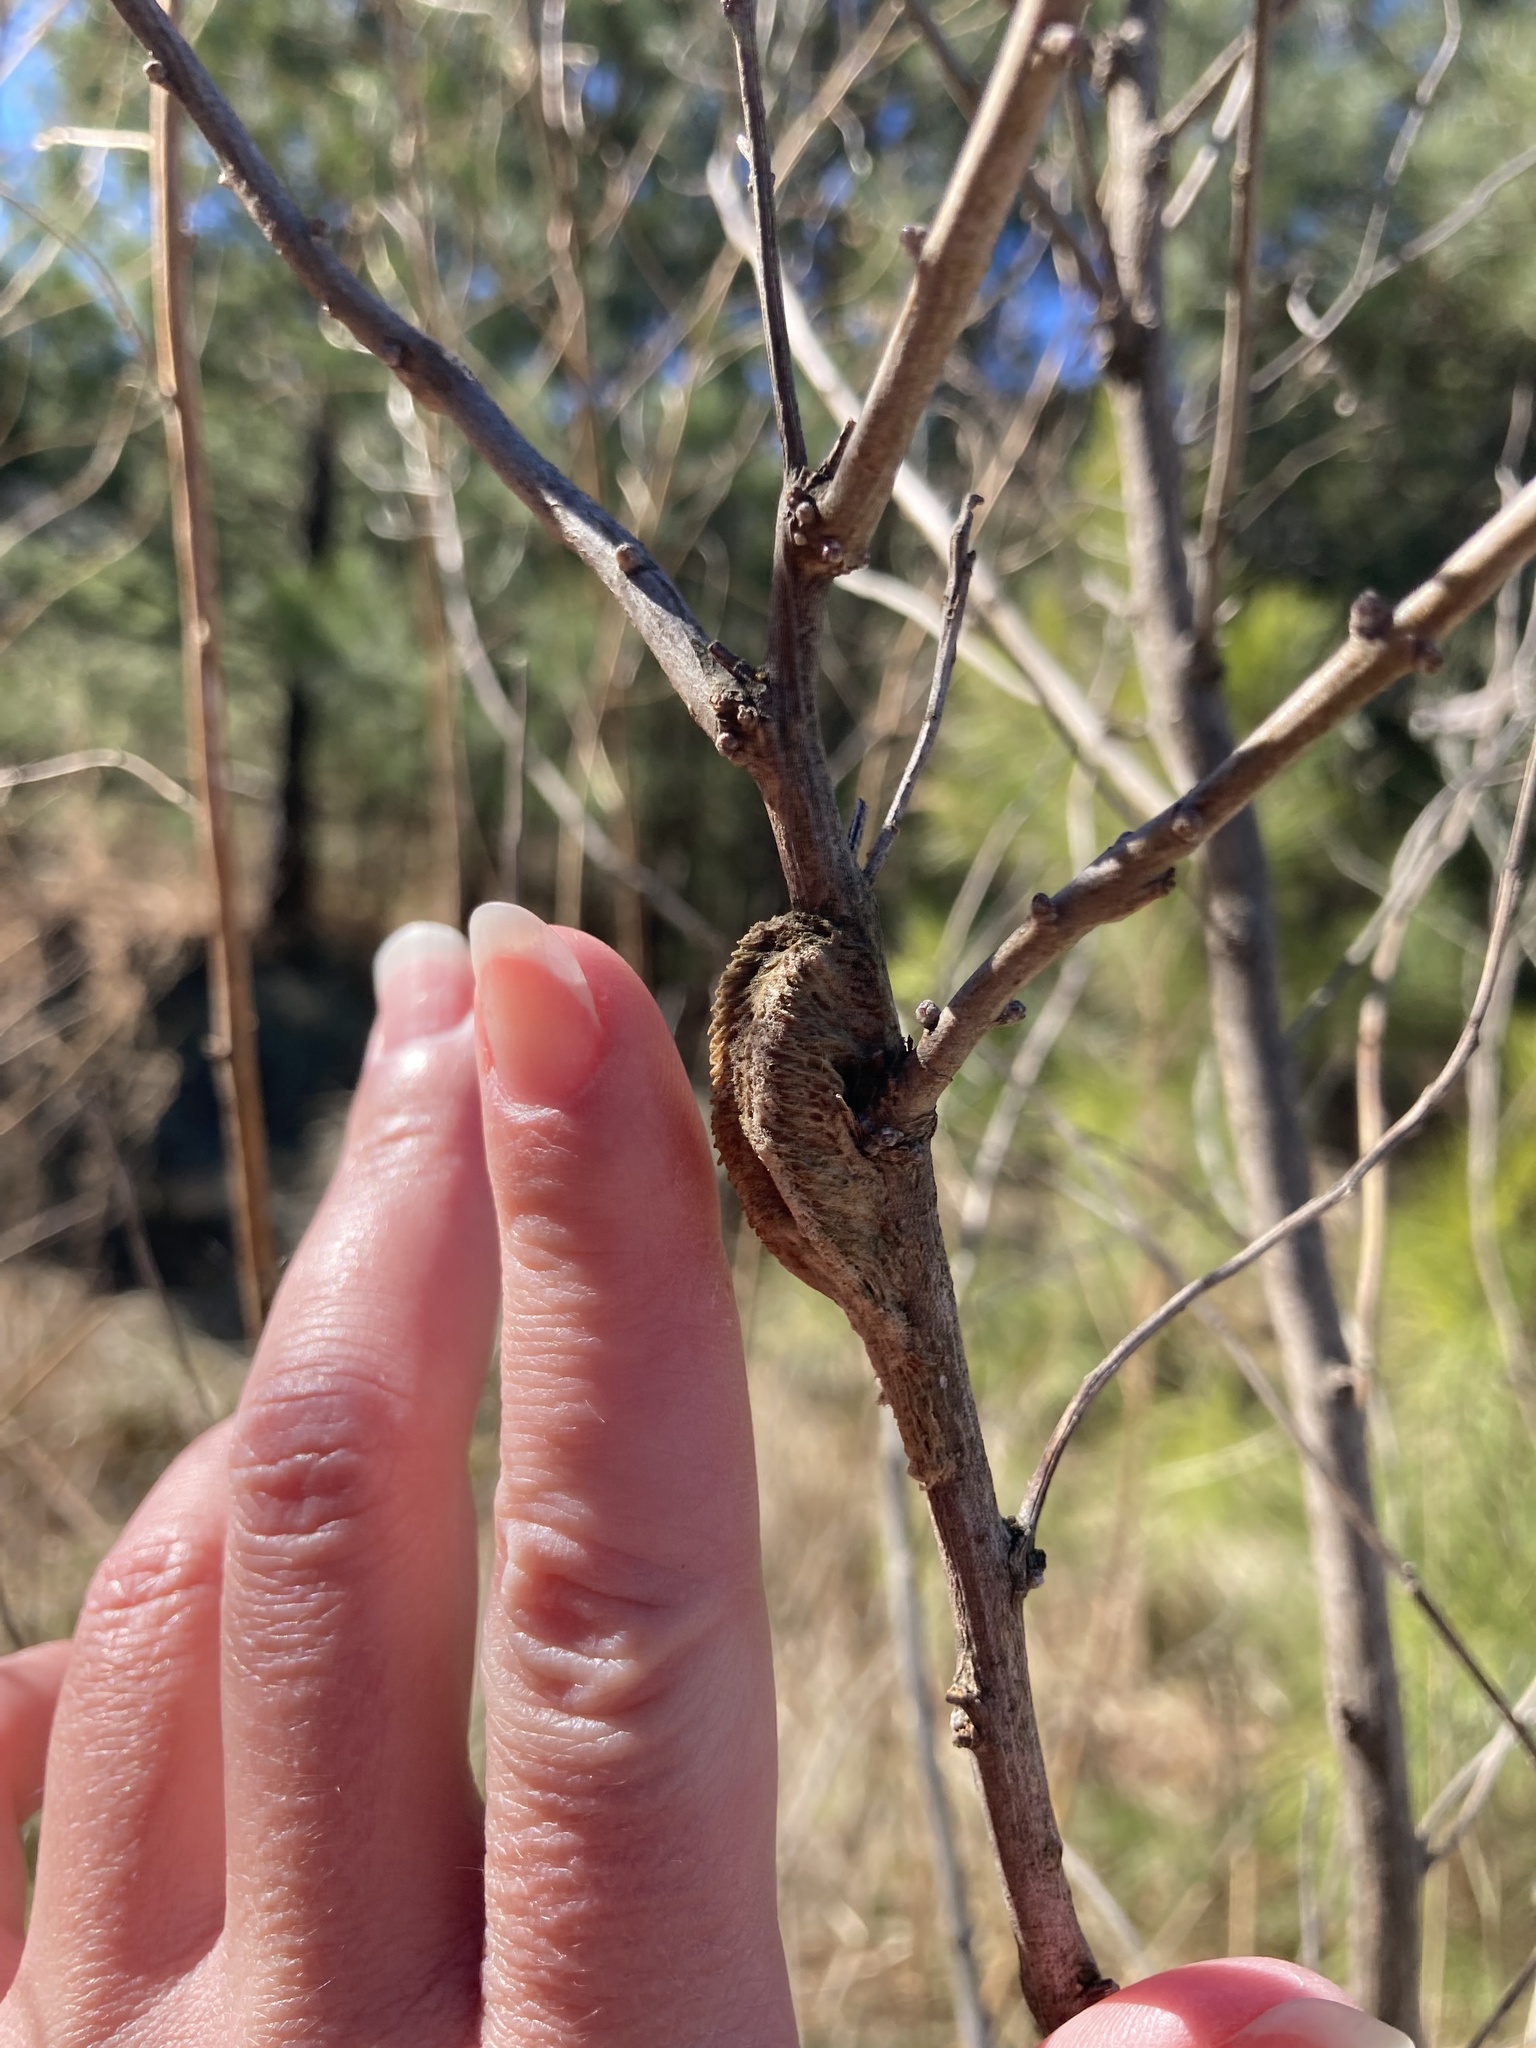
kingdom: Animalia
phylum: Arthropoda
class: Insecta
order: Mantodea
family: Mantidae
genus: Tenodera
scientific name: Tenodera angustipennis
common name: Asian mantis
